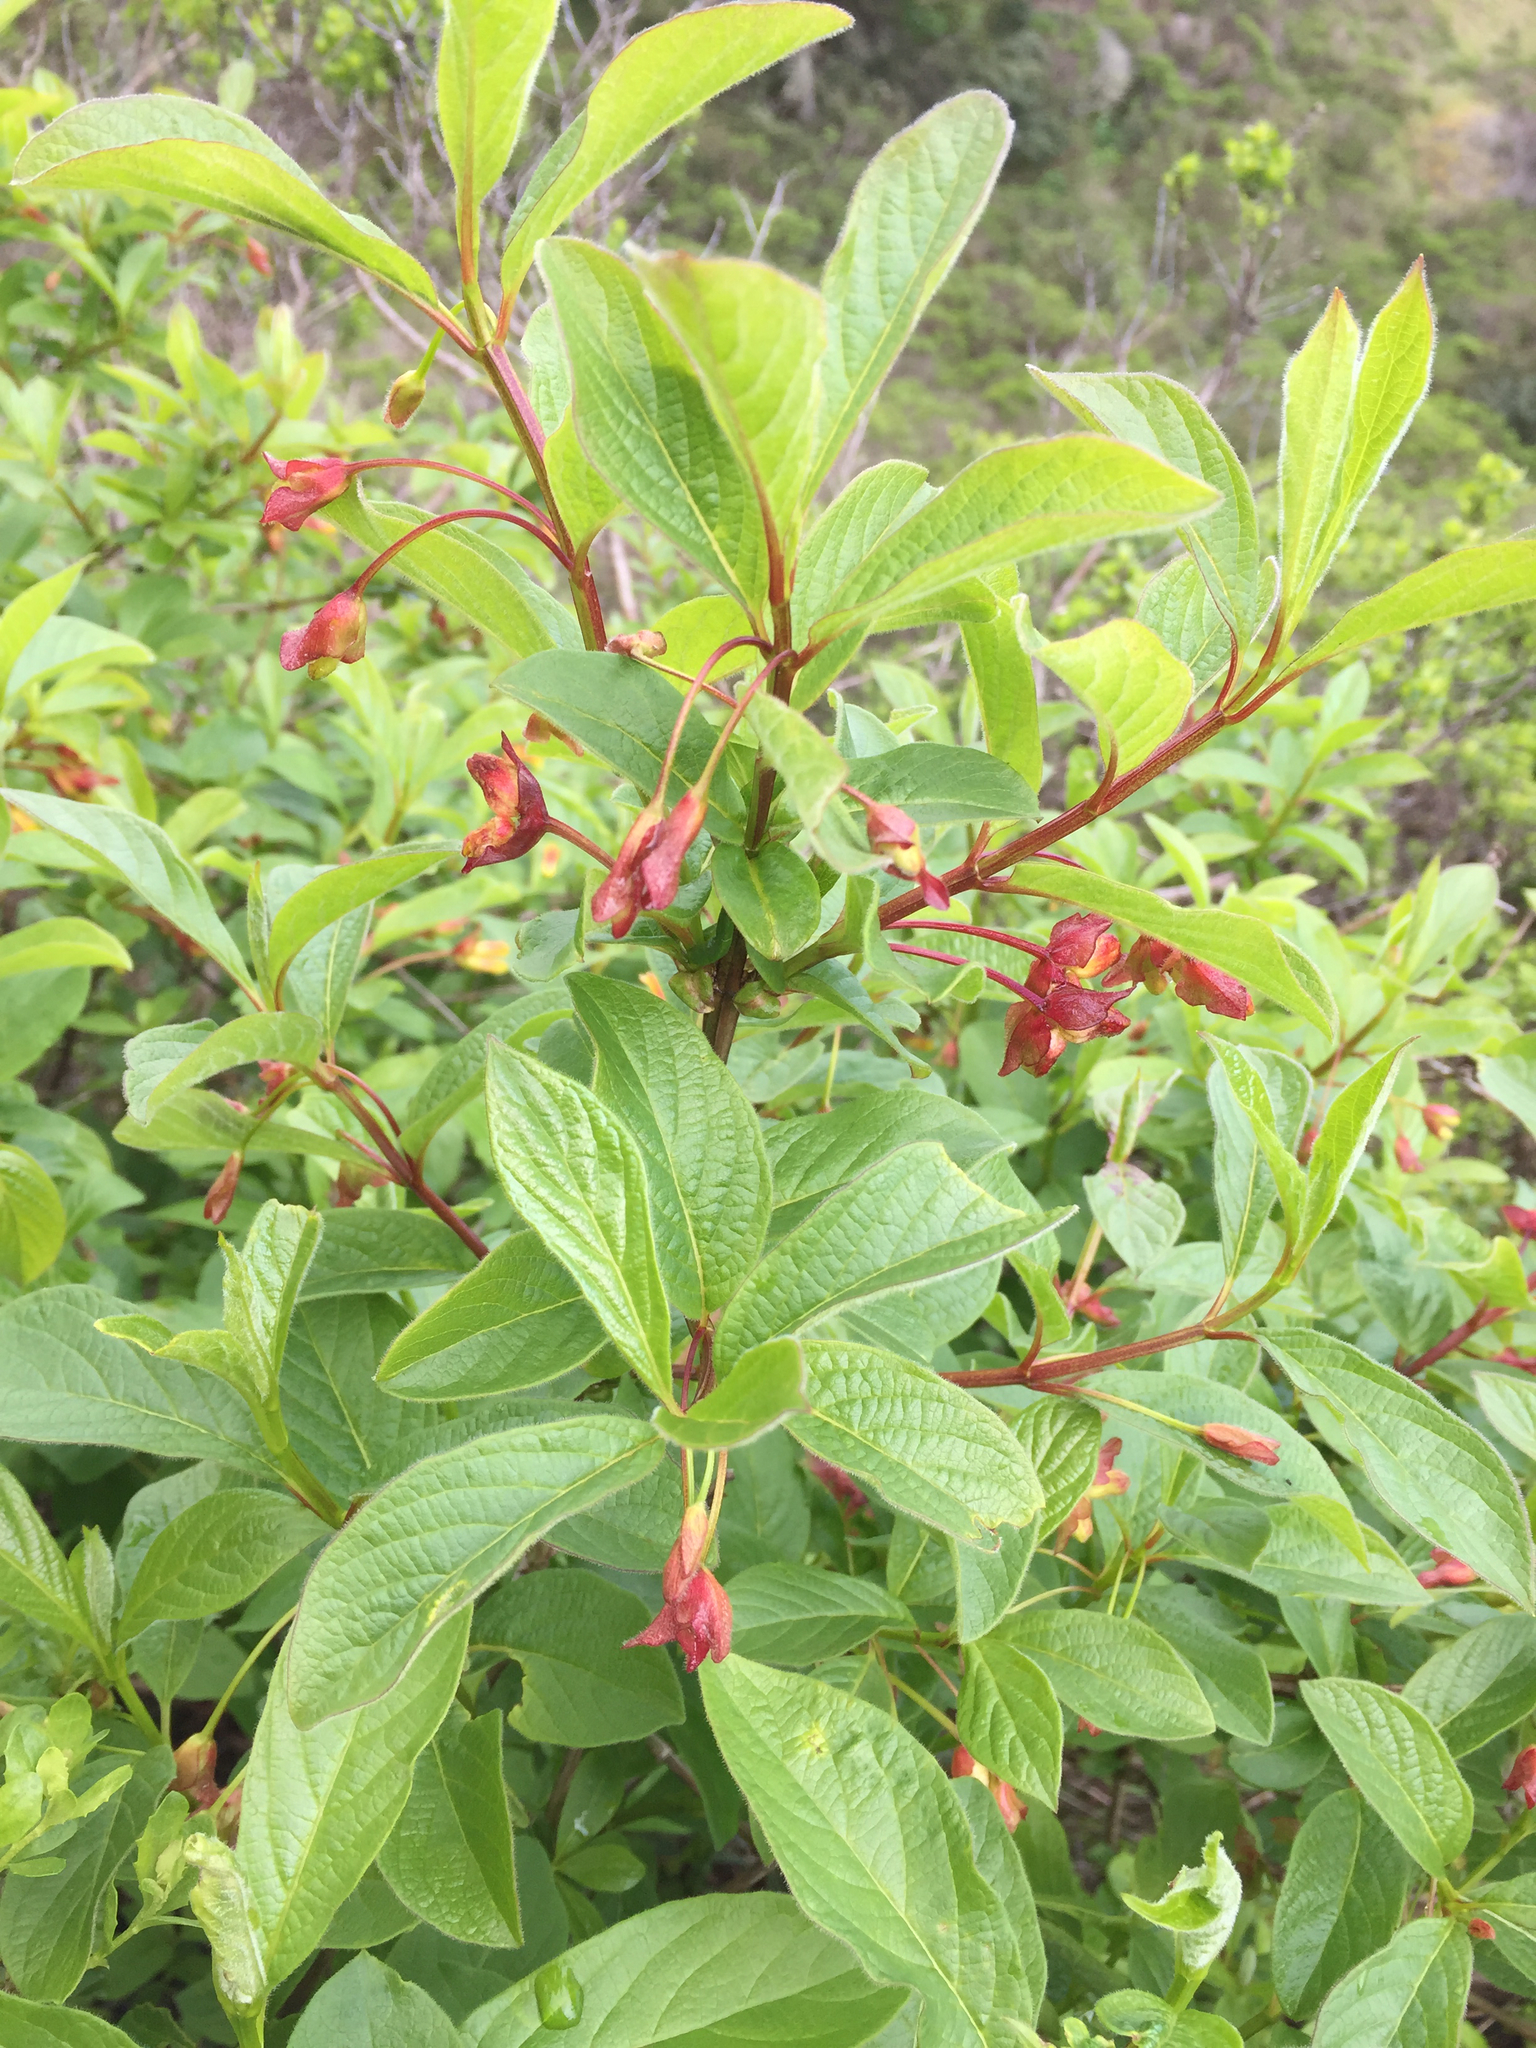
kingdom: Plantae
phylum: Tracheophyta
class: Magnoliopsida
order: Dipsacales
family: Caprifoliaceae
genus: Lonicera
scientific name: Lonicera involucrata
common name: Californian honeysuckle
